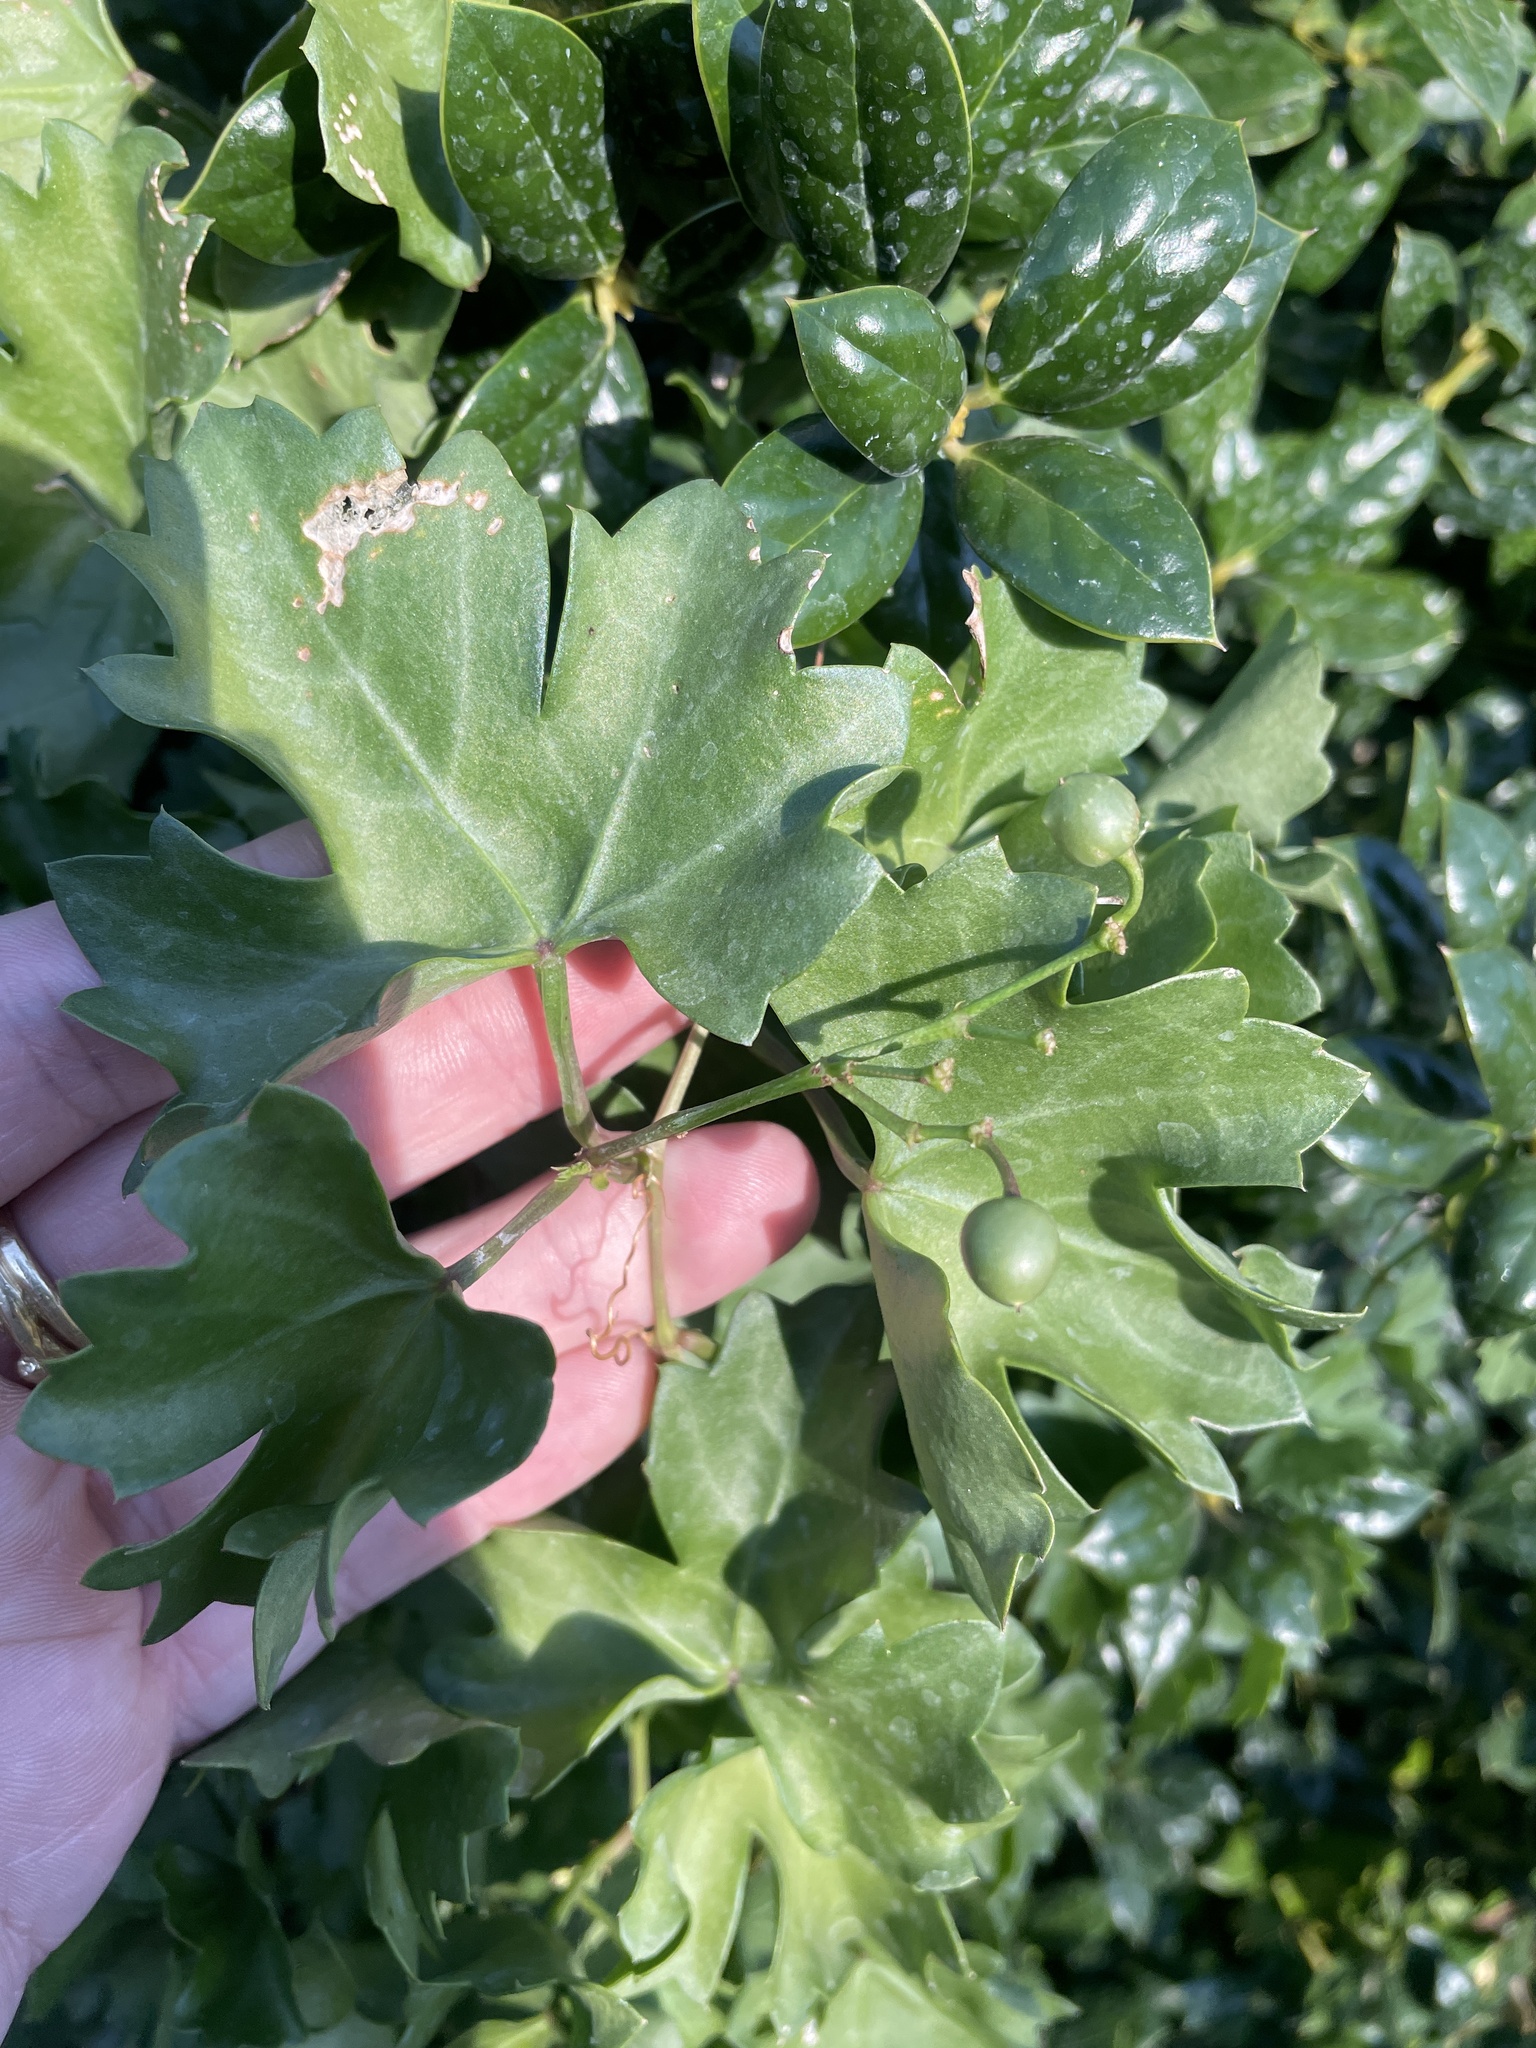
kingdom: Plantae
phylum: Tracheophyta
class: Magnoliopsida
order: Vitales
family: Vitaceae
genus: Cissus
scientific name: Cissus trifoliata
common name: Vine-sorrel
